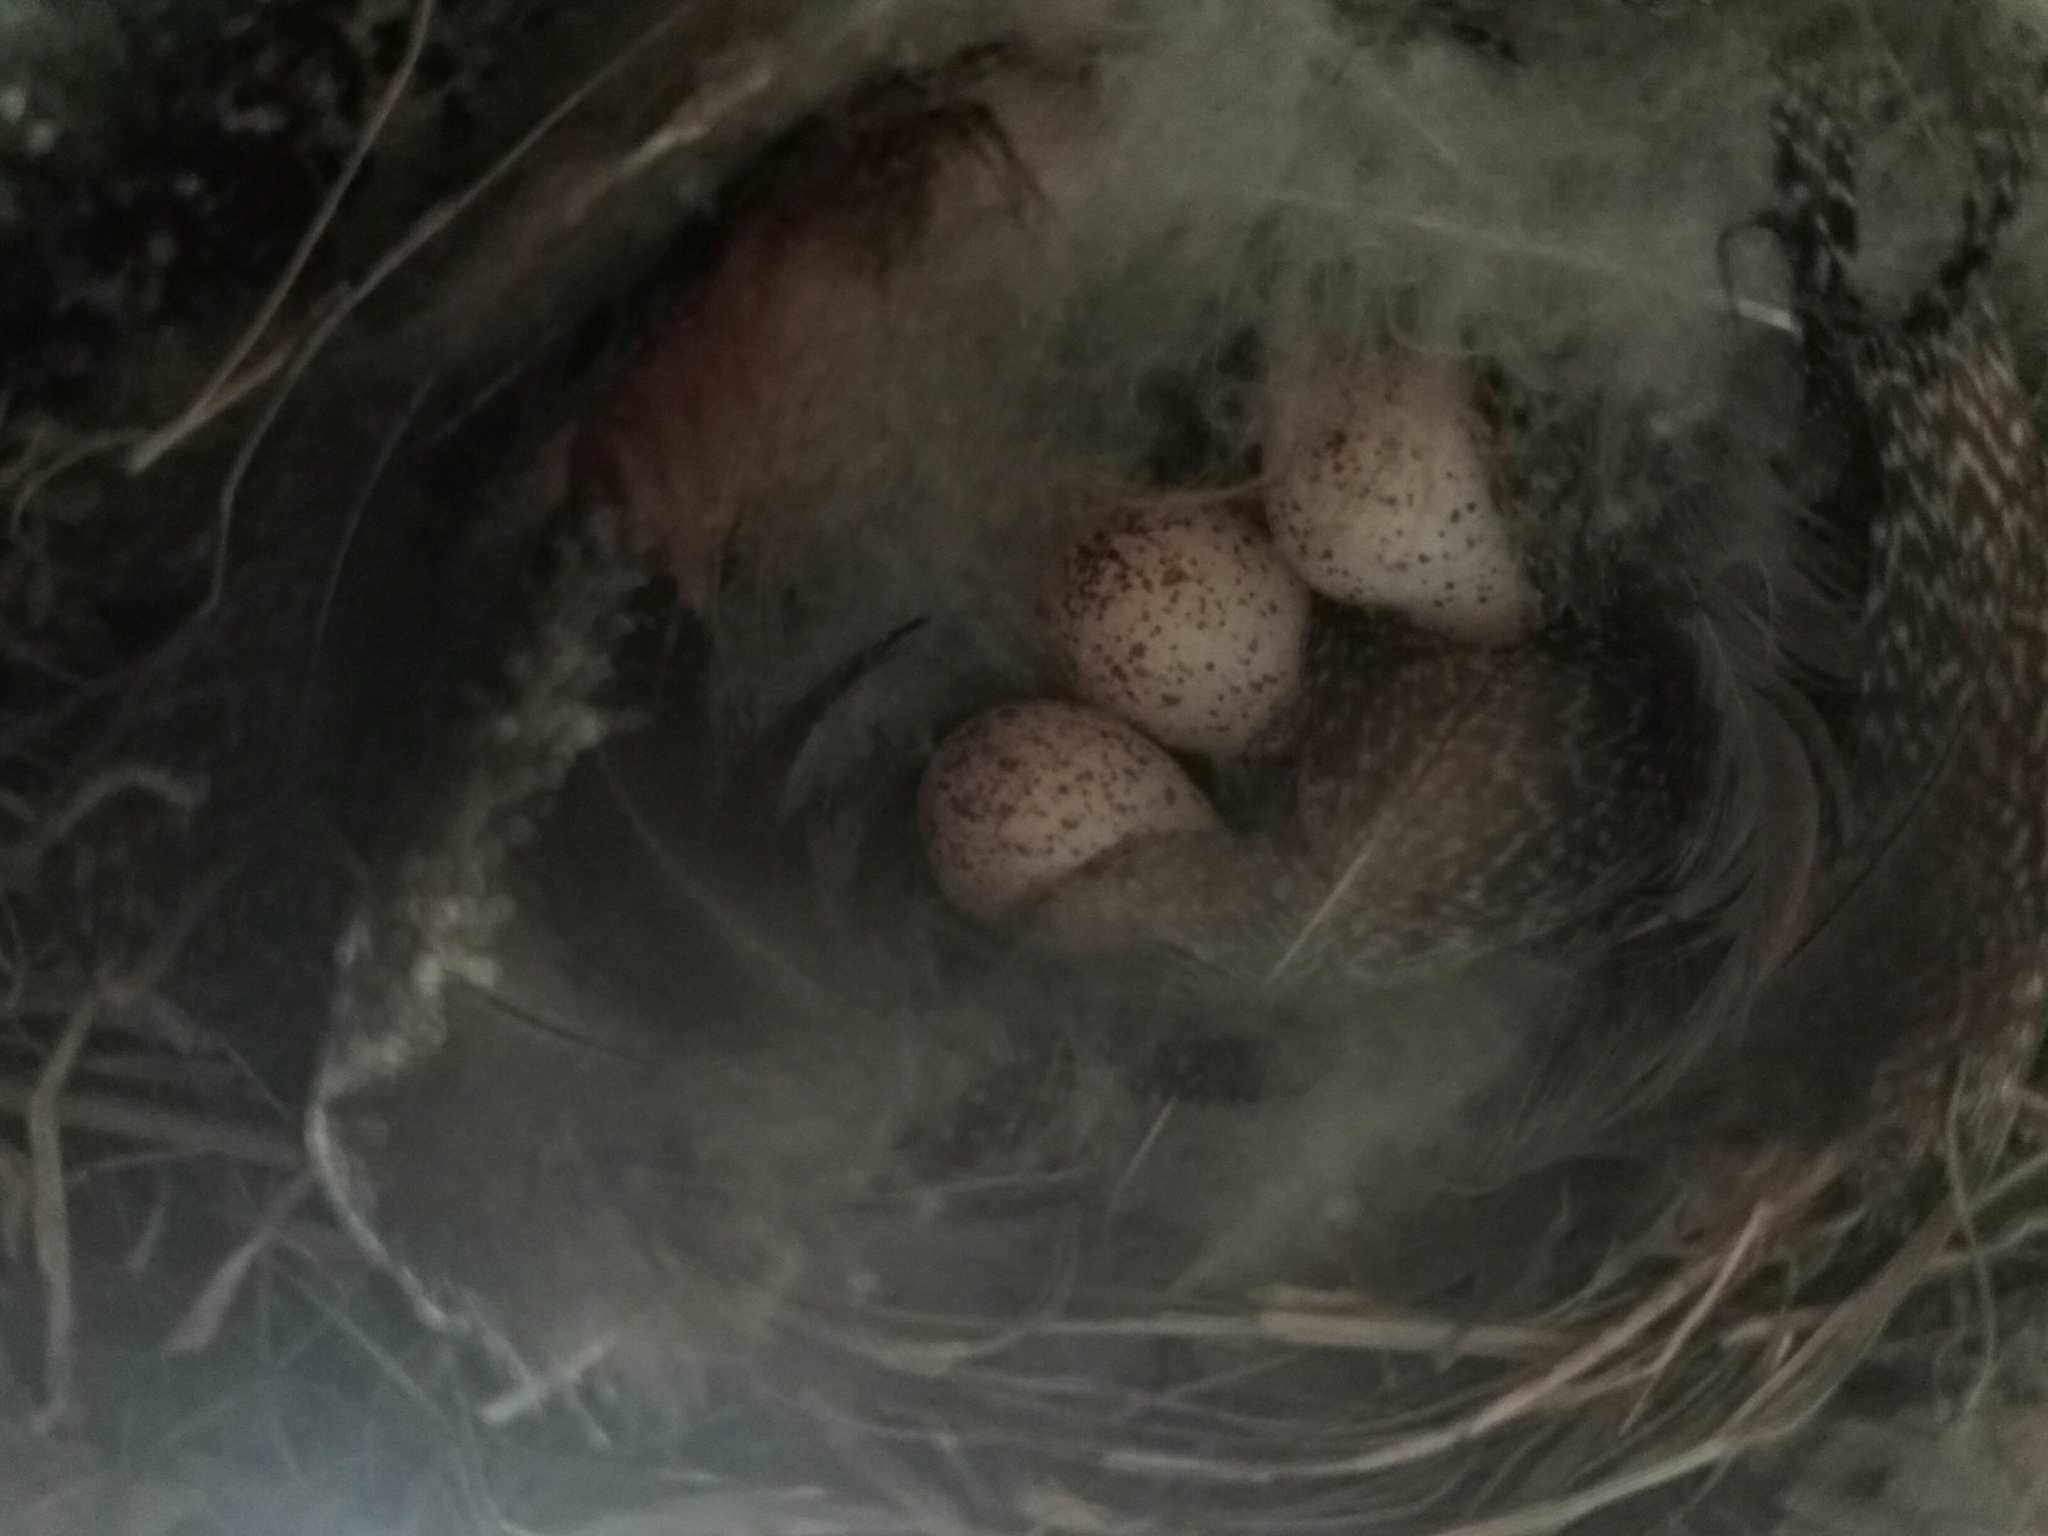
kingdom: Animalia
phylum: Chordata
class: Aves
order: Passeriformes
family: Hirundinidae
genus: Hirundo
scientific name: Hirundo neoxena
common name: Welcome swallow
